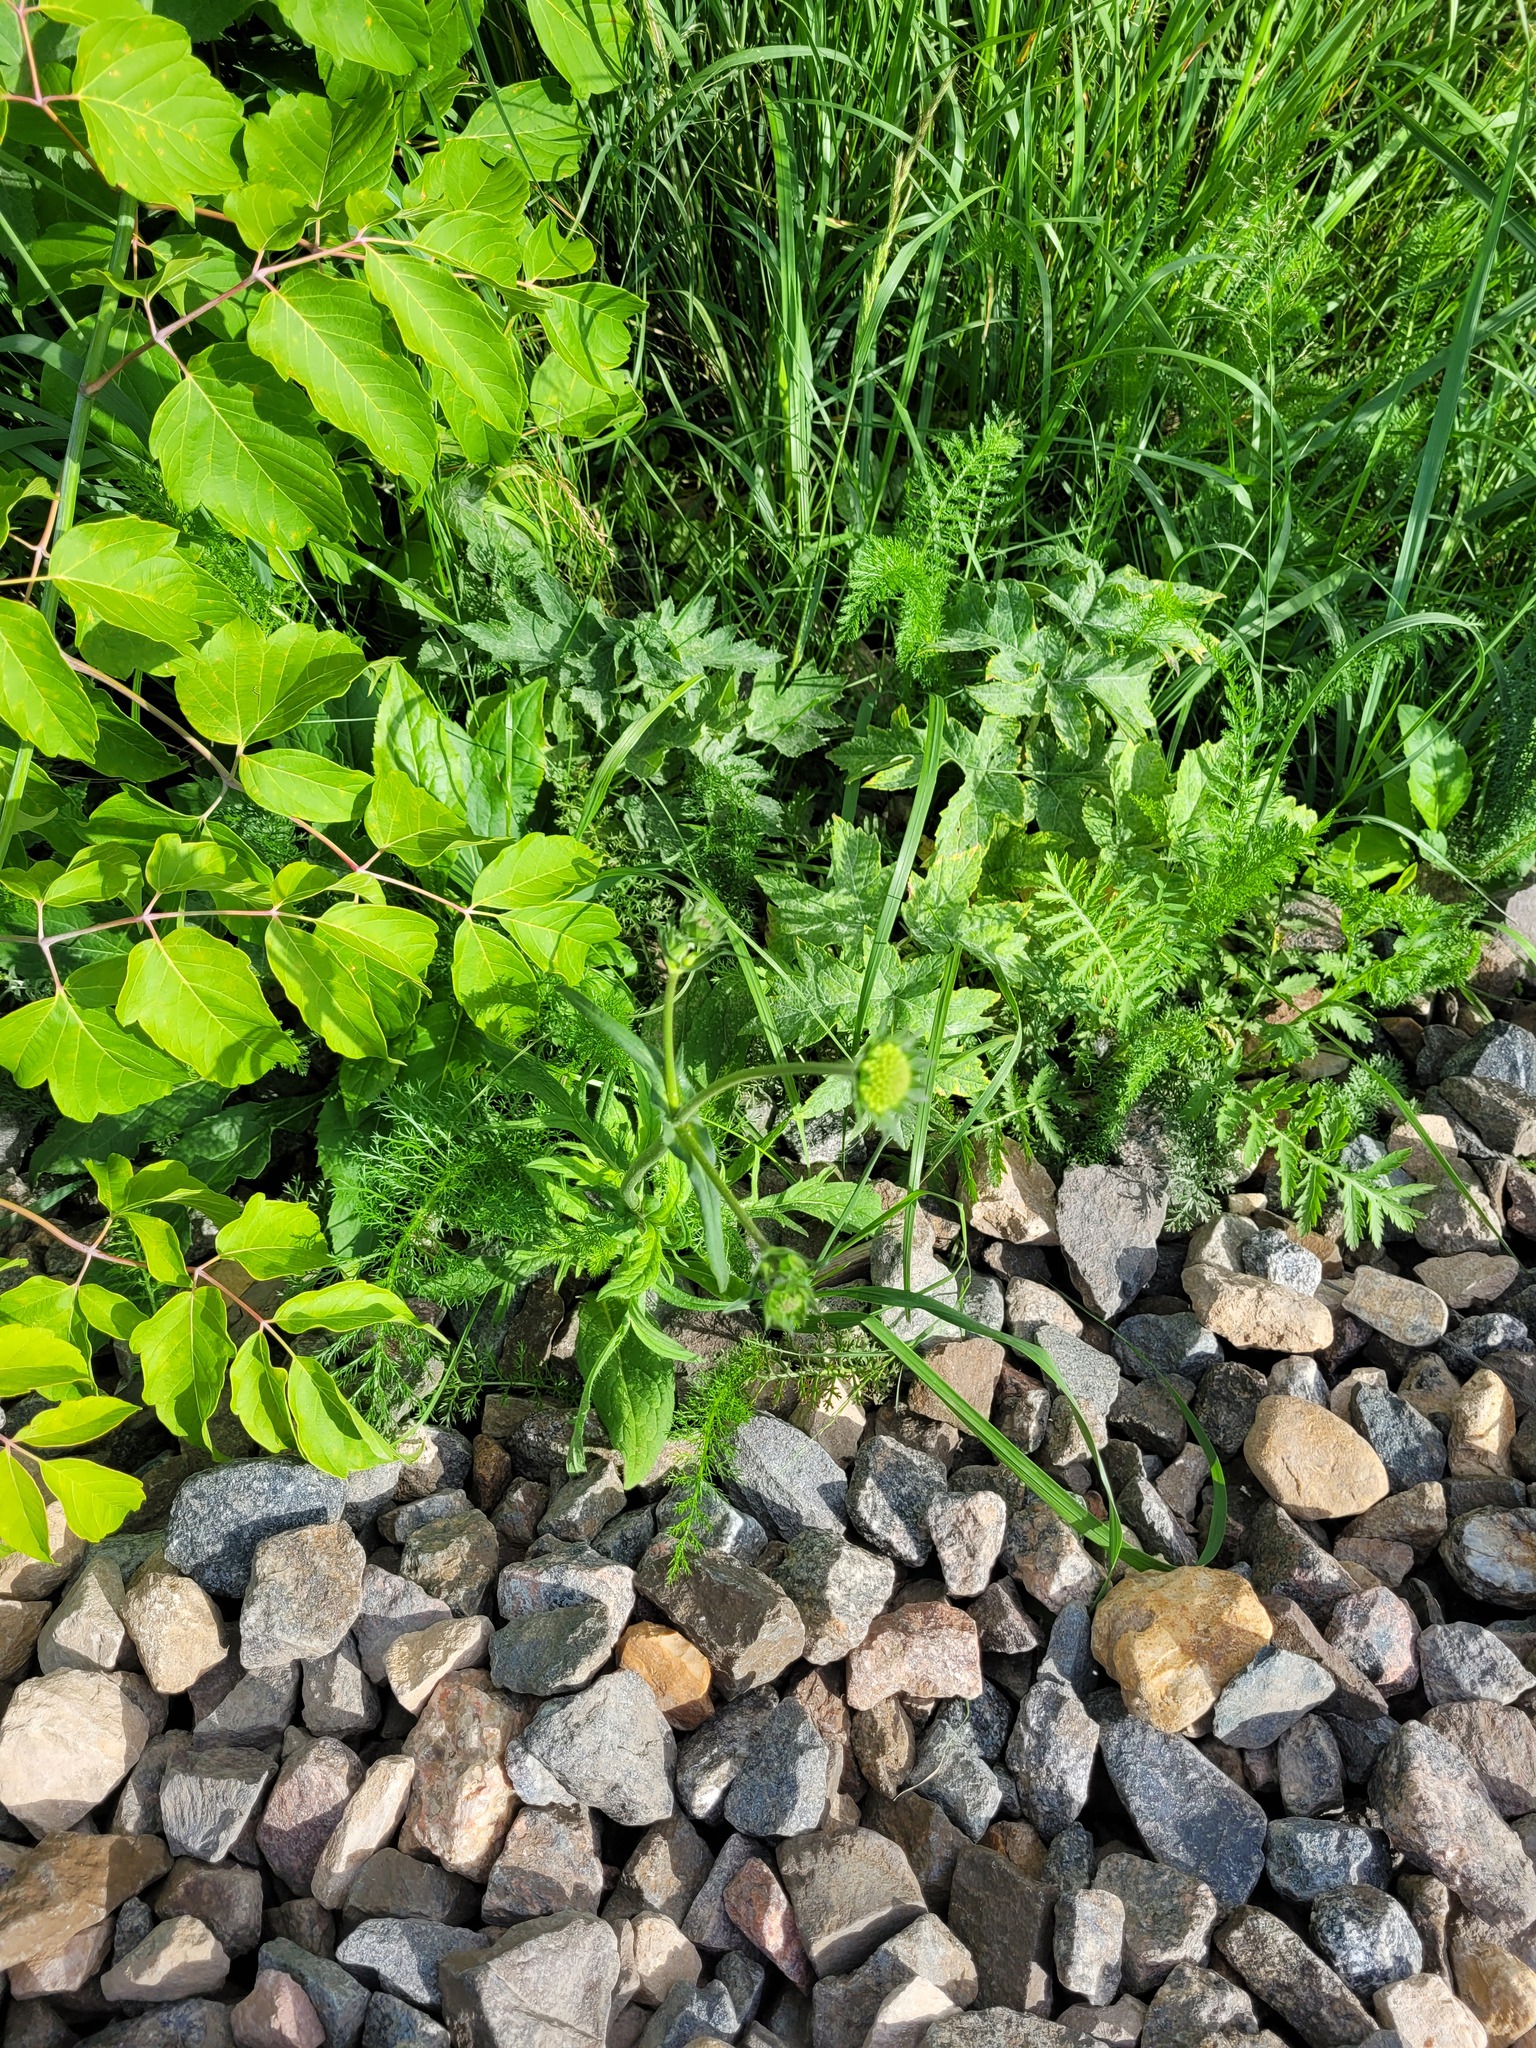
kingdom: Plantae
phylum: Tracheophyta
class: Magnoliopsida
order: Dipsacales
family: Caprifoliaceae
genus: Knautia
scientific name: Knautia arvensis
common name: Field scabiosa
